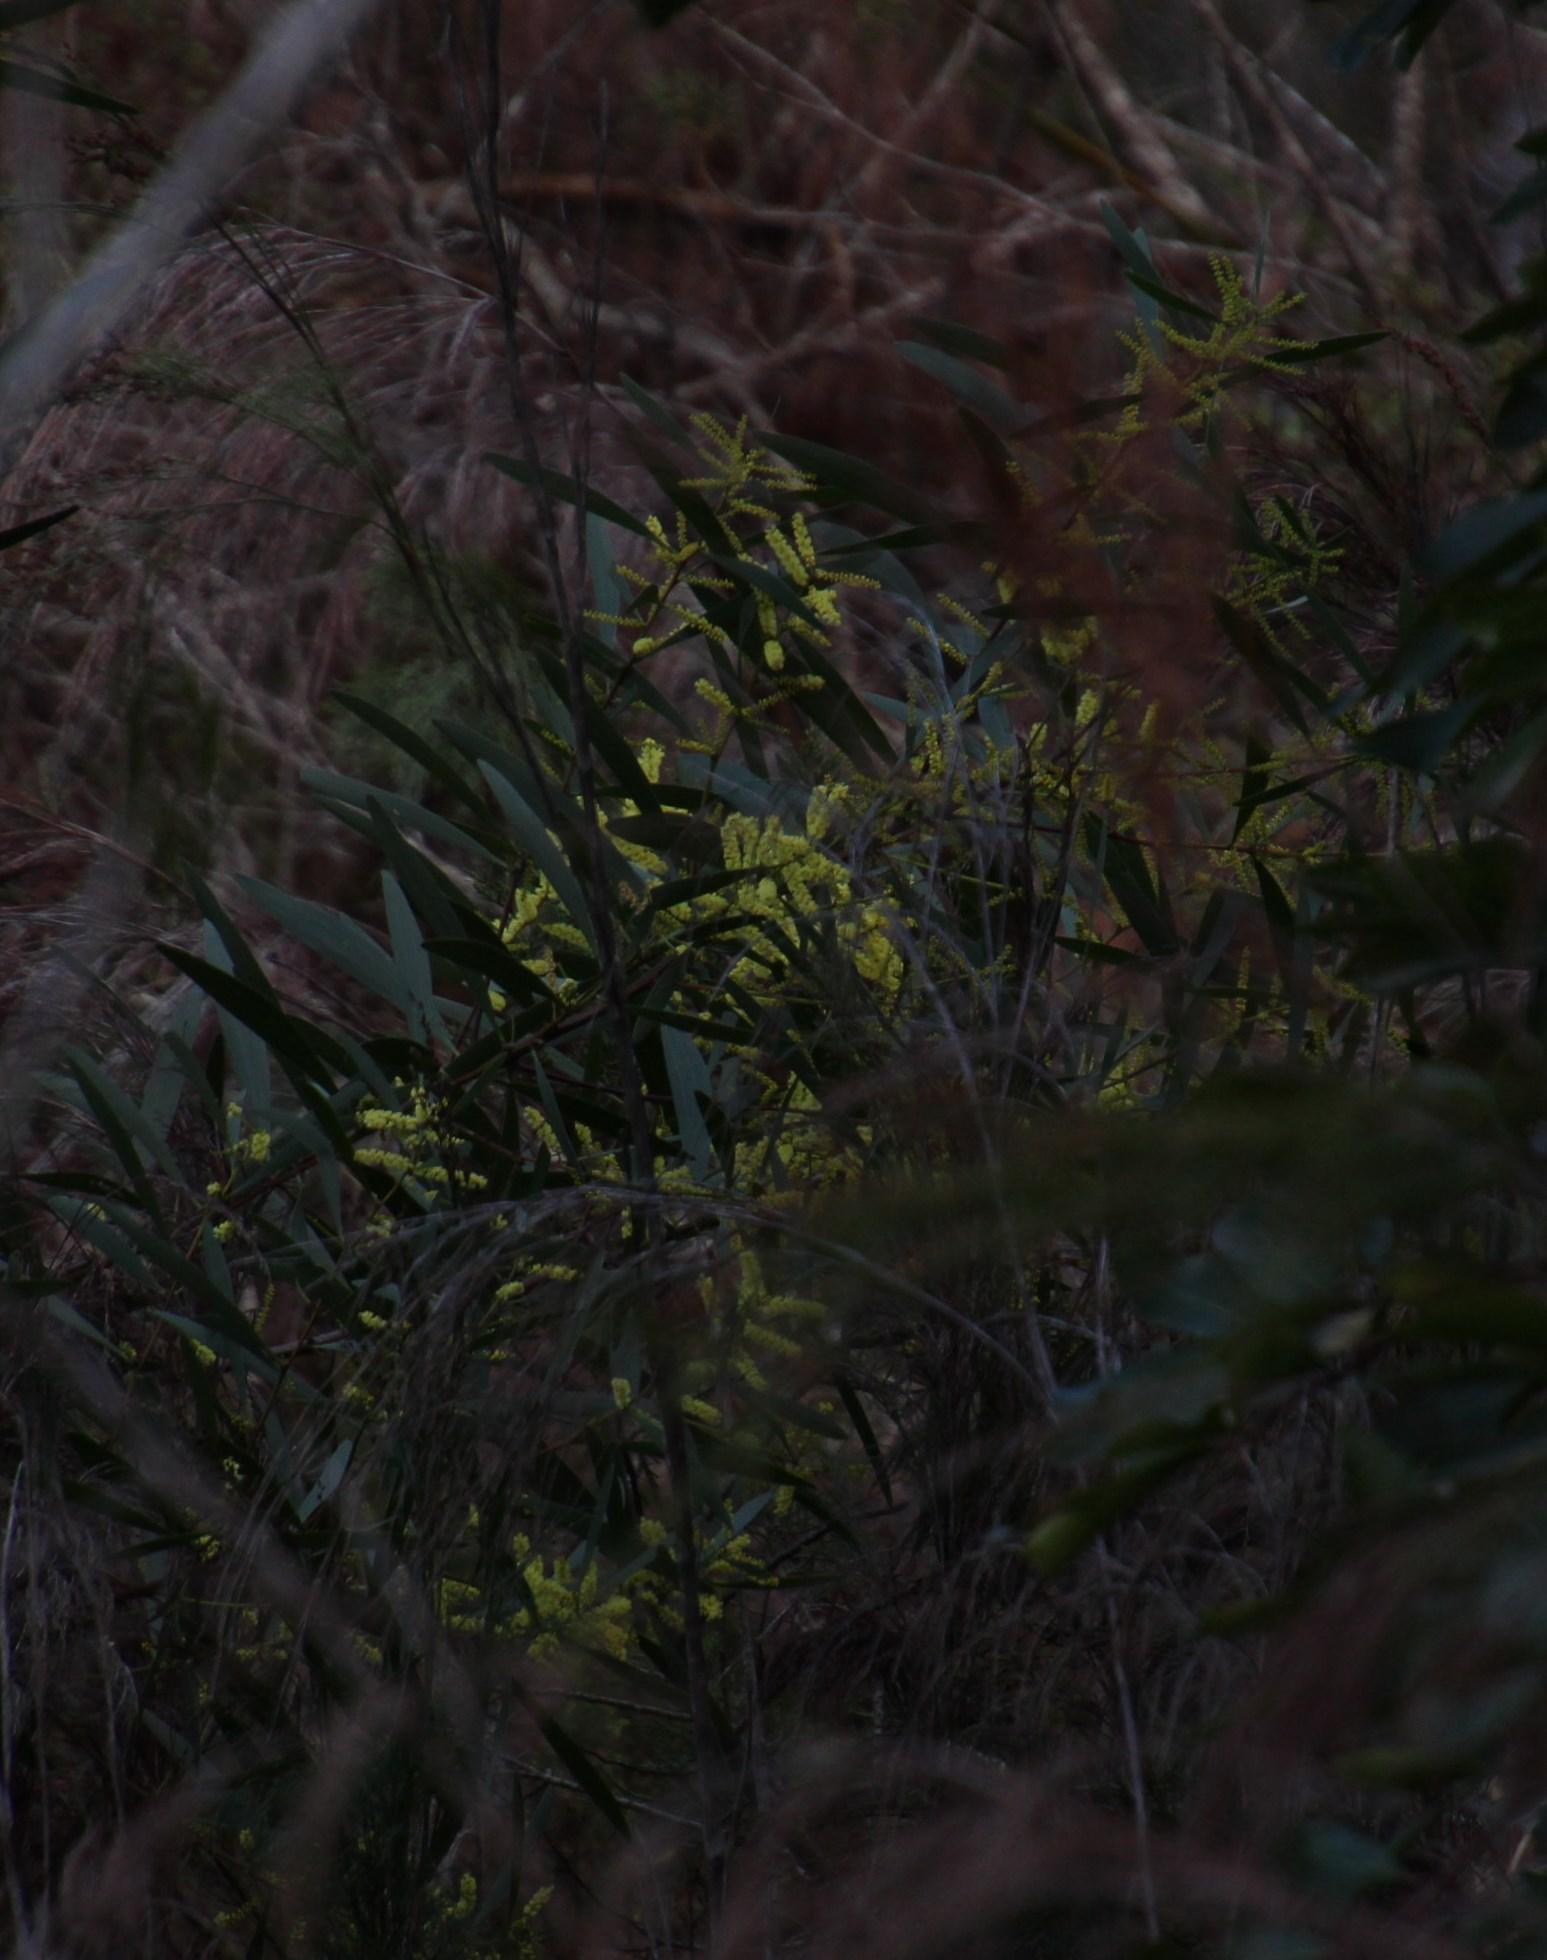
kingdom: Plantae
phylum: Tracheophyta
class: Magnoliopsida
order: Fabales
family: Fabaceae
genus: Acacia
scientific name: Acacia longifolia
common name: Sydney golden wattle
